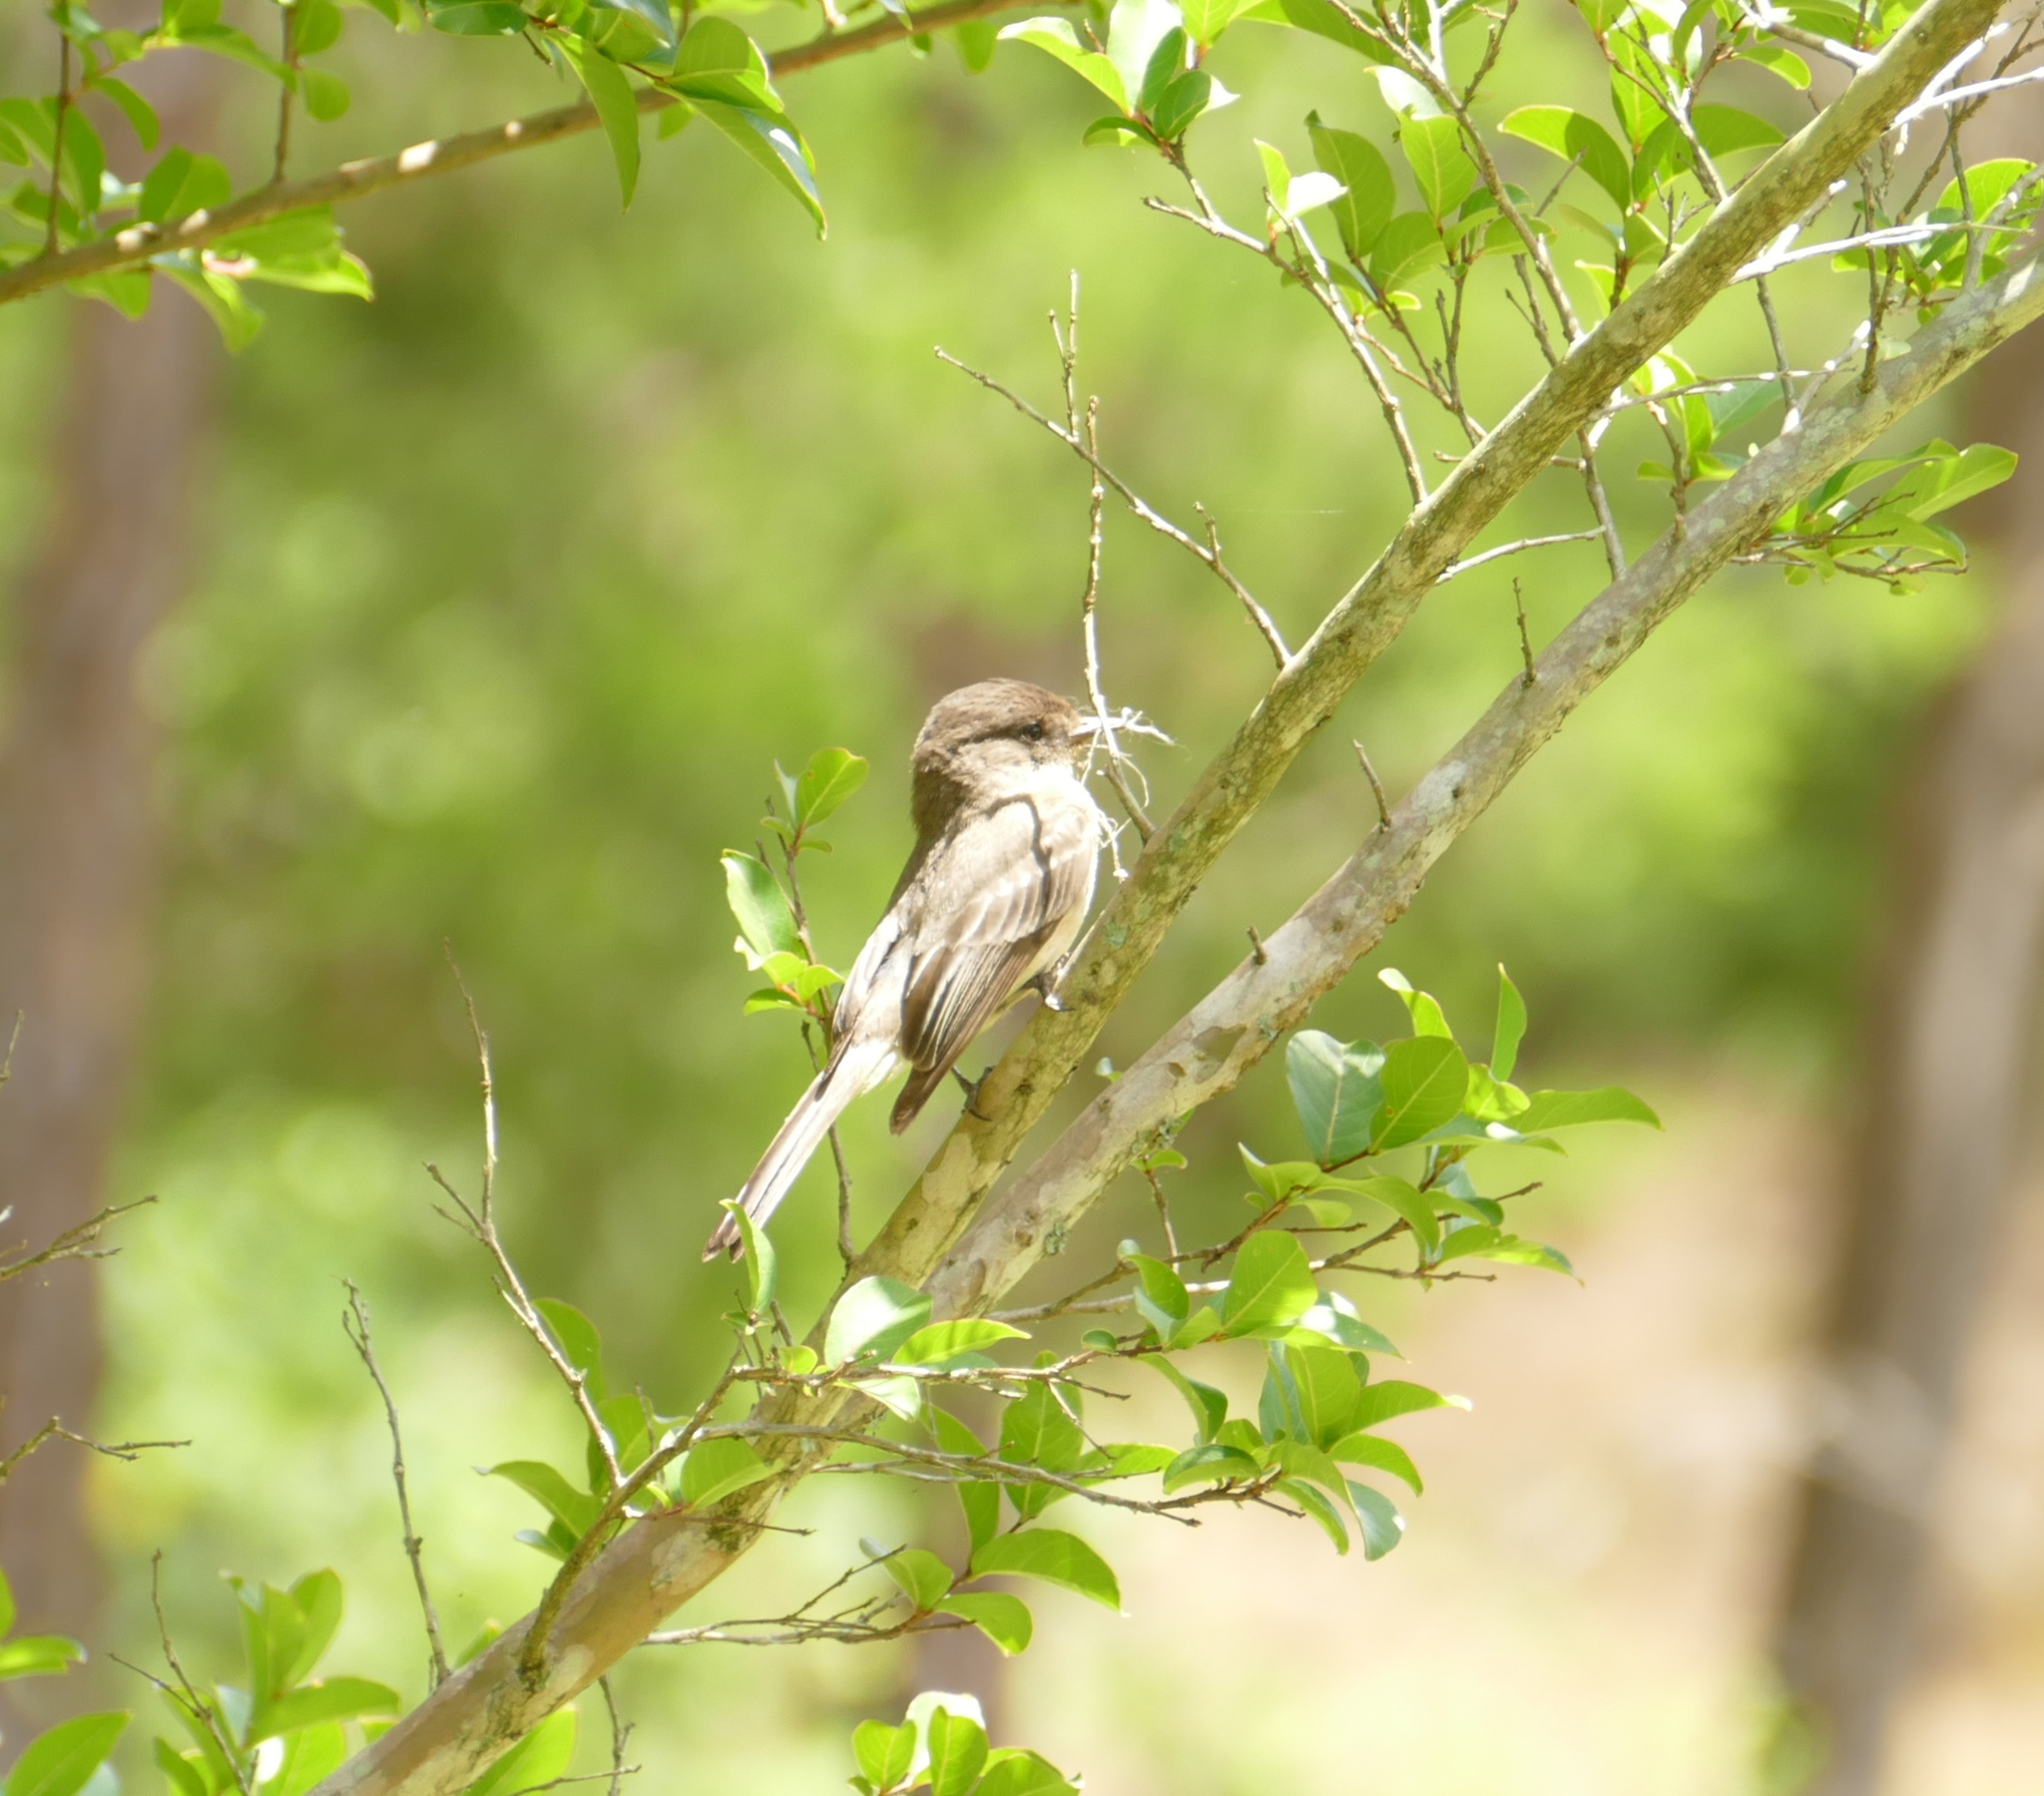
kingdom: Animalia
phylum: Chordata
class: Aves
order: Passeriformes
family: Tyrannidae
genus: Contopus
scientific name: Contopus virens
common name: Eastern wood-pewee
